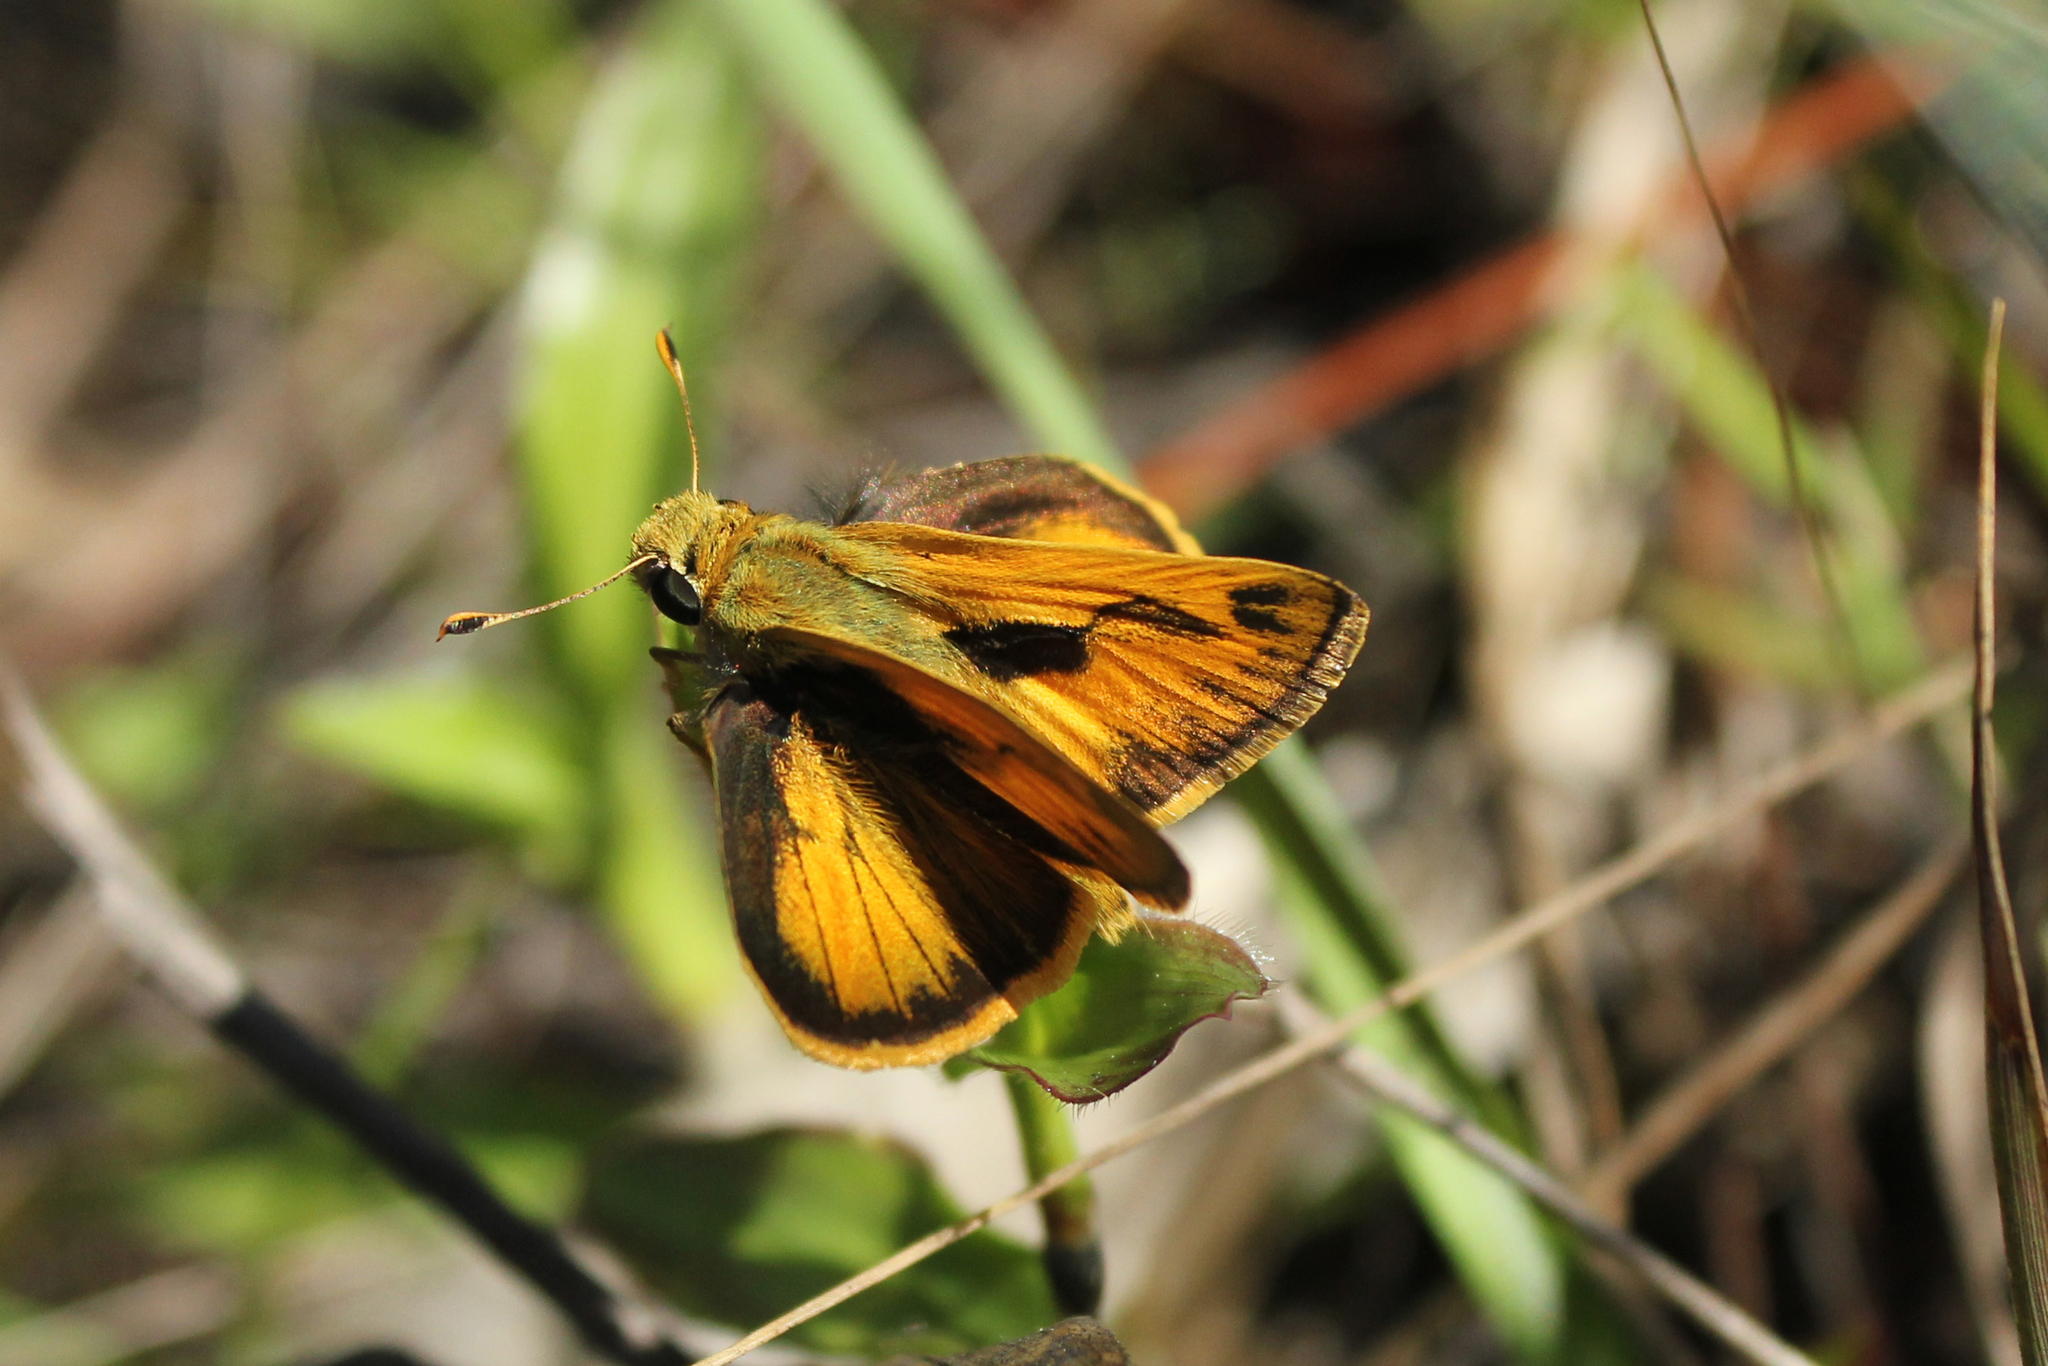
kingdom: Animalia
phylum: Arthropoda
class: Insecta
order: Lepidoptera
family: Hesperiidae
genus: Polites
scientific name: Polites vibex
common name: Whirlabout
